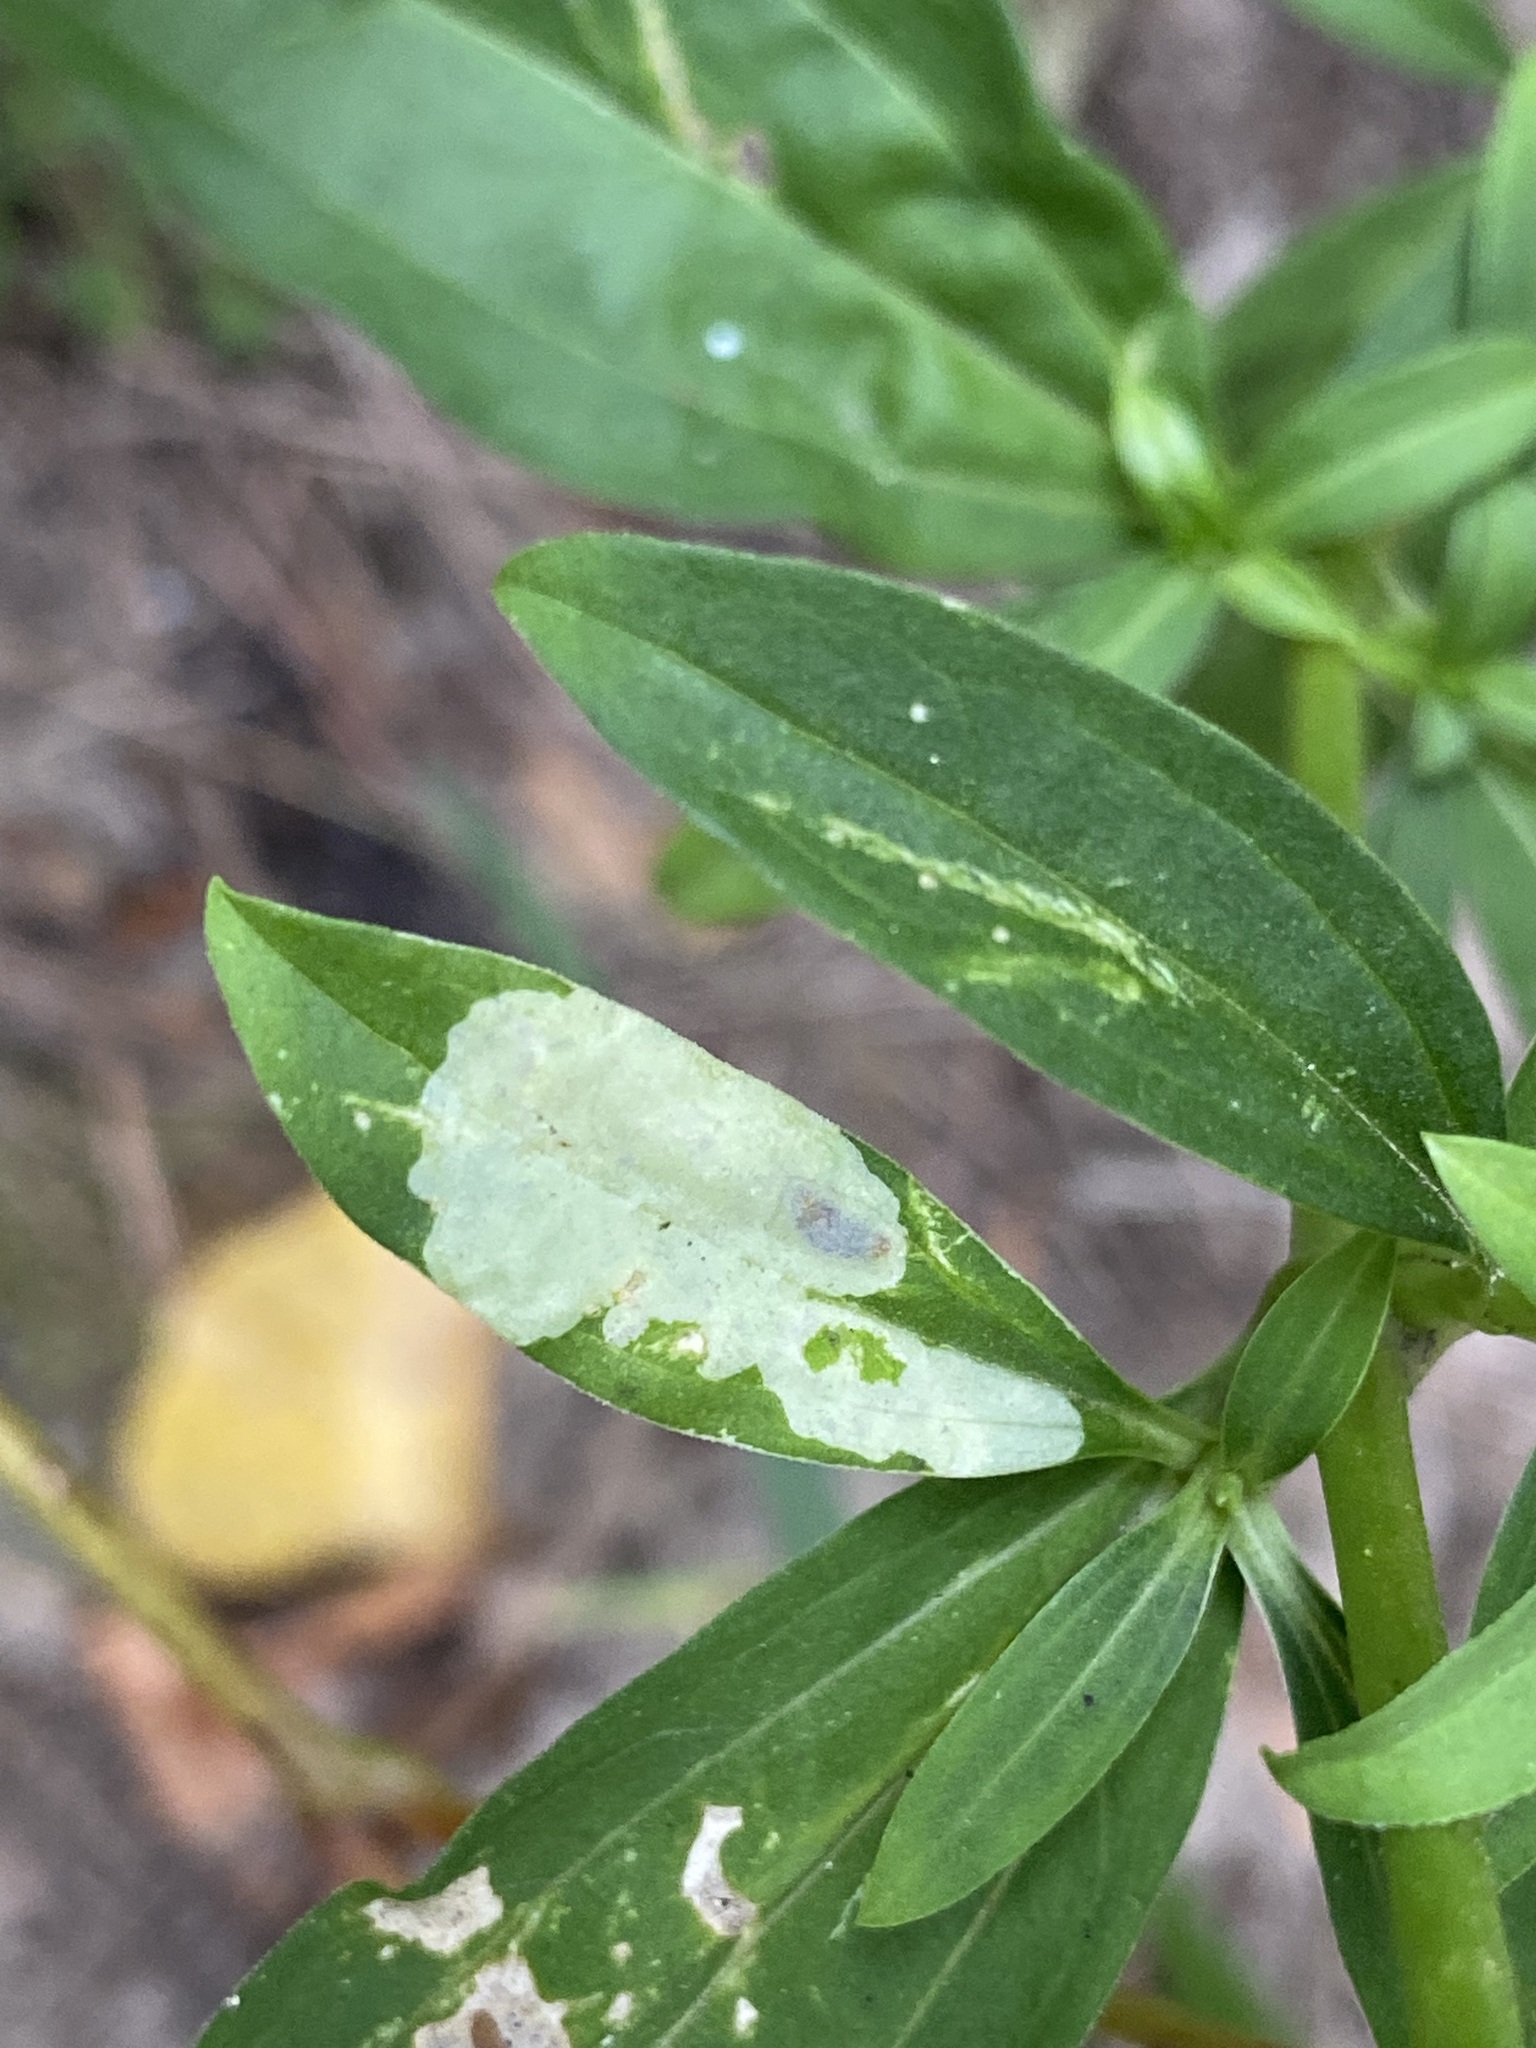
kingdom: Animalia
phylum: Arthropoda
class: Insecta
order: Diptera
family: Agromyzidae
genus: Amauromyza
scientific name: Amauromyza flavifrons
